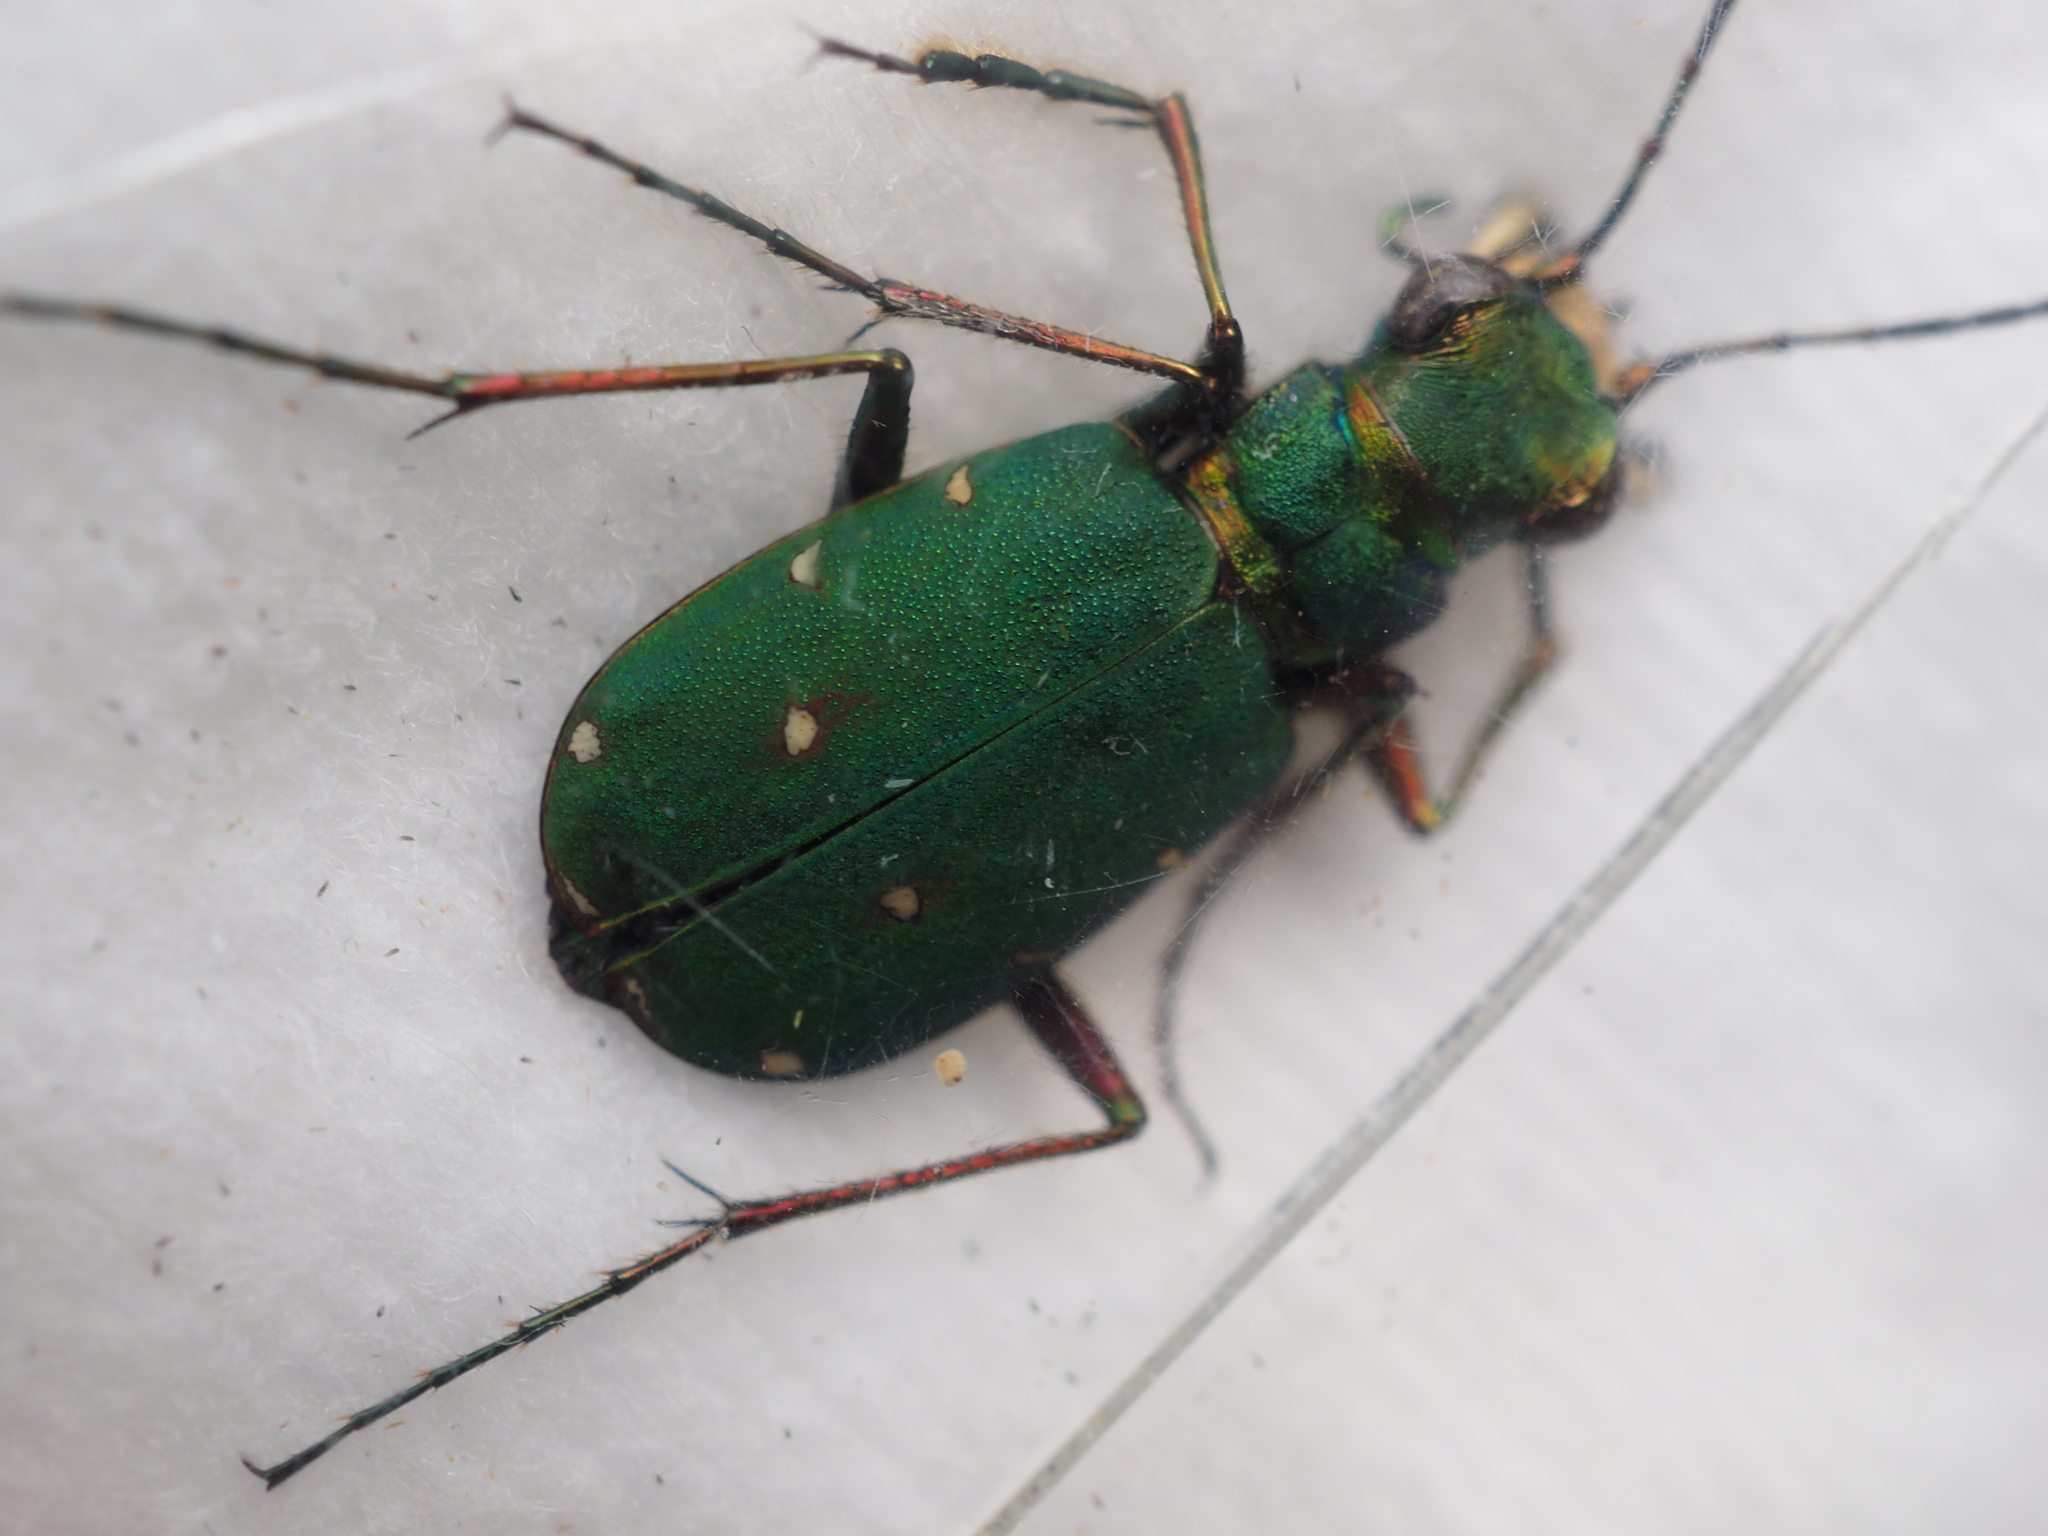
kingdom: Animalia
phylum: Arthropoda
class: Insecta
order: Coleoptera
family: Carabidae
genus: Cicindela
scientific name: Cicindela campestris
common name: Common tiger beetle
